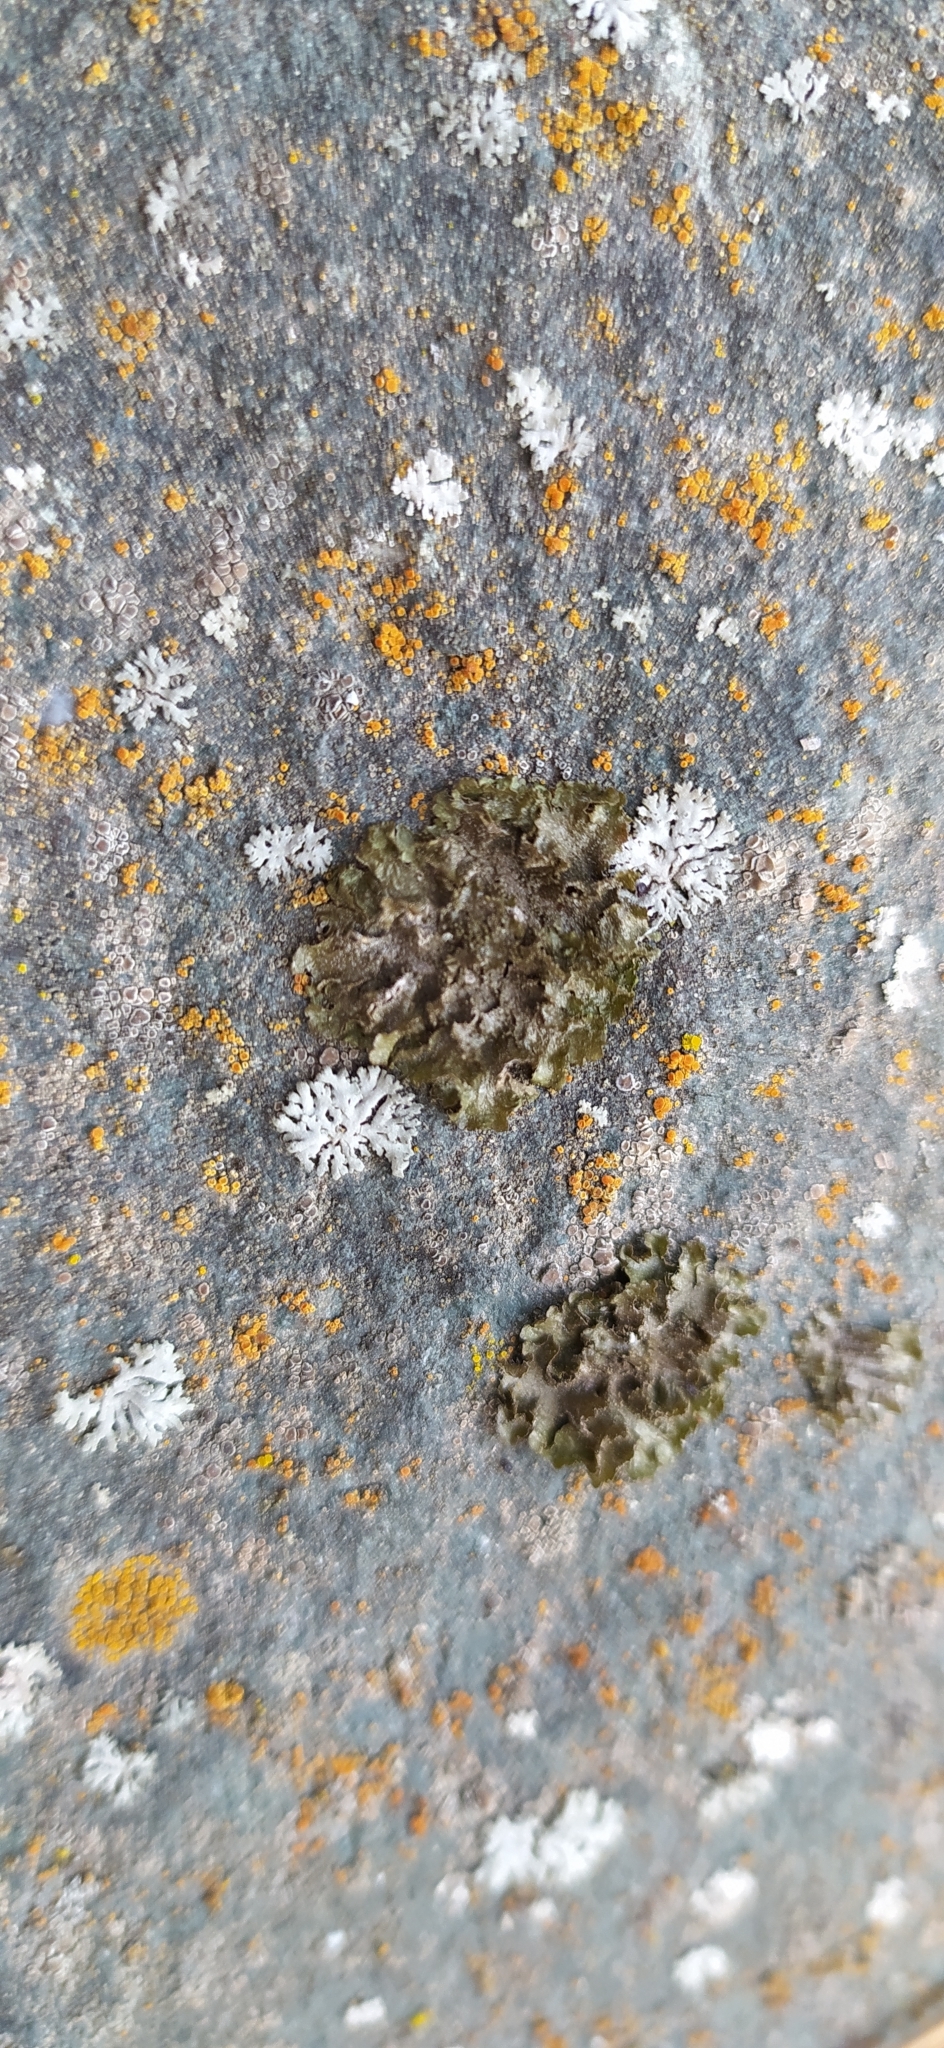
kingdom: Fungi
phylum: Ascomycota
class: Lecanoromycetes
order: Lecanorales
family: Parmeliaceae
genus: Melanohalea
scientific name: Melanohalea exasperatula
